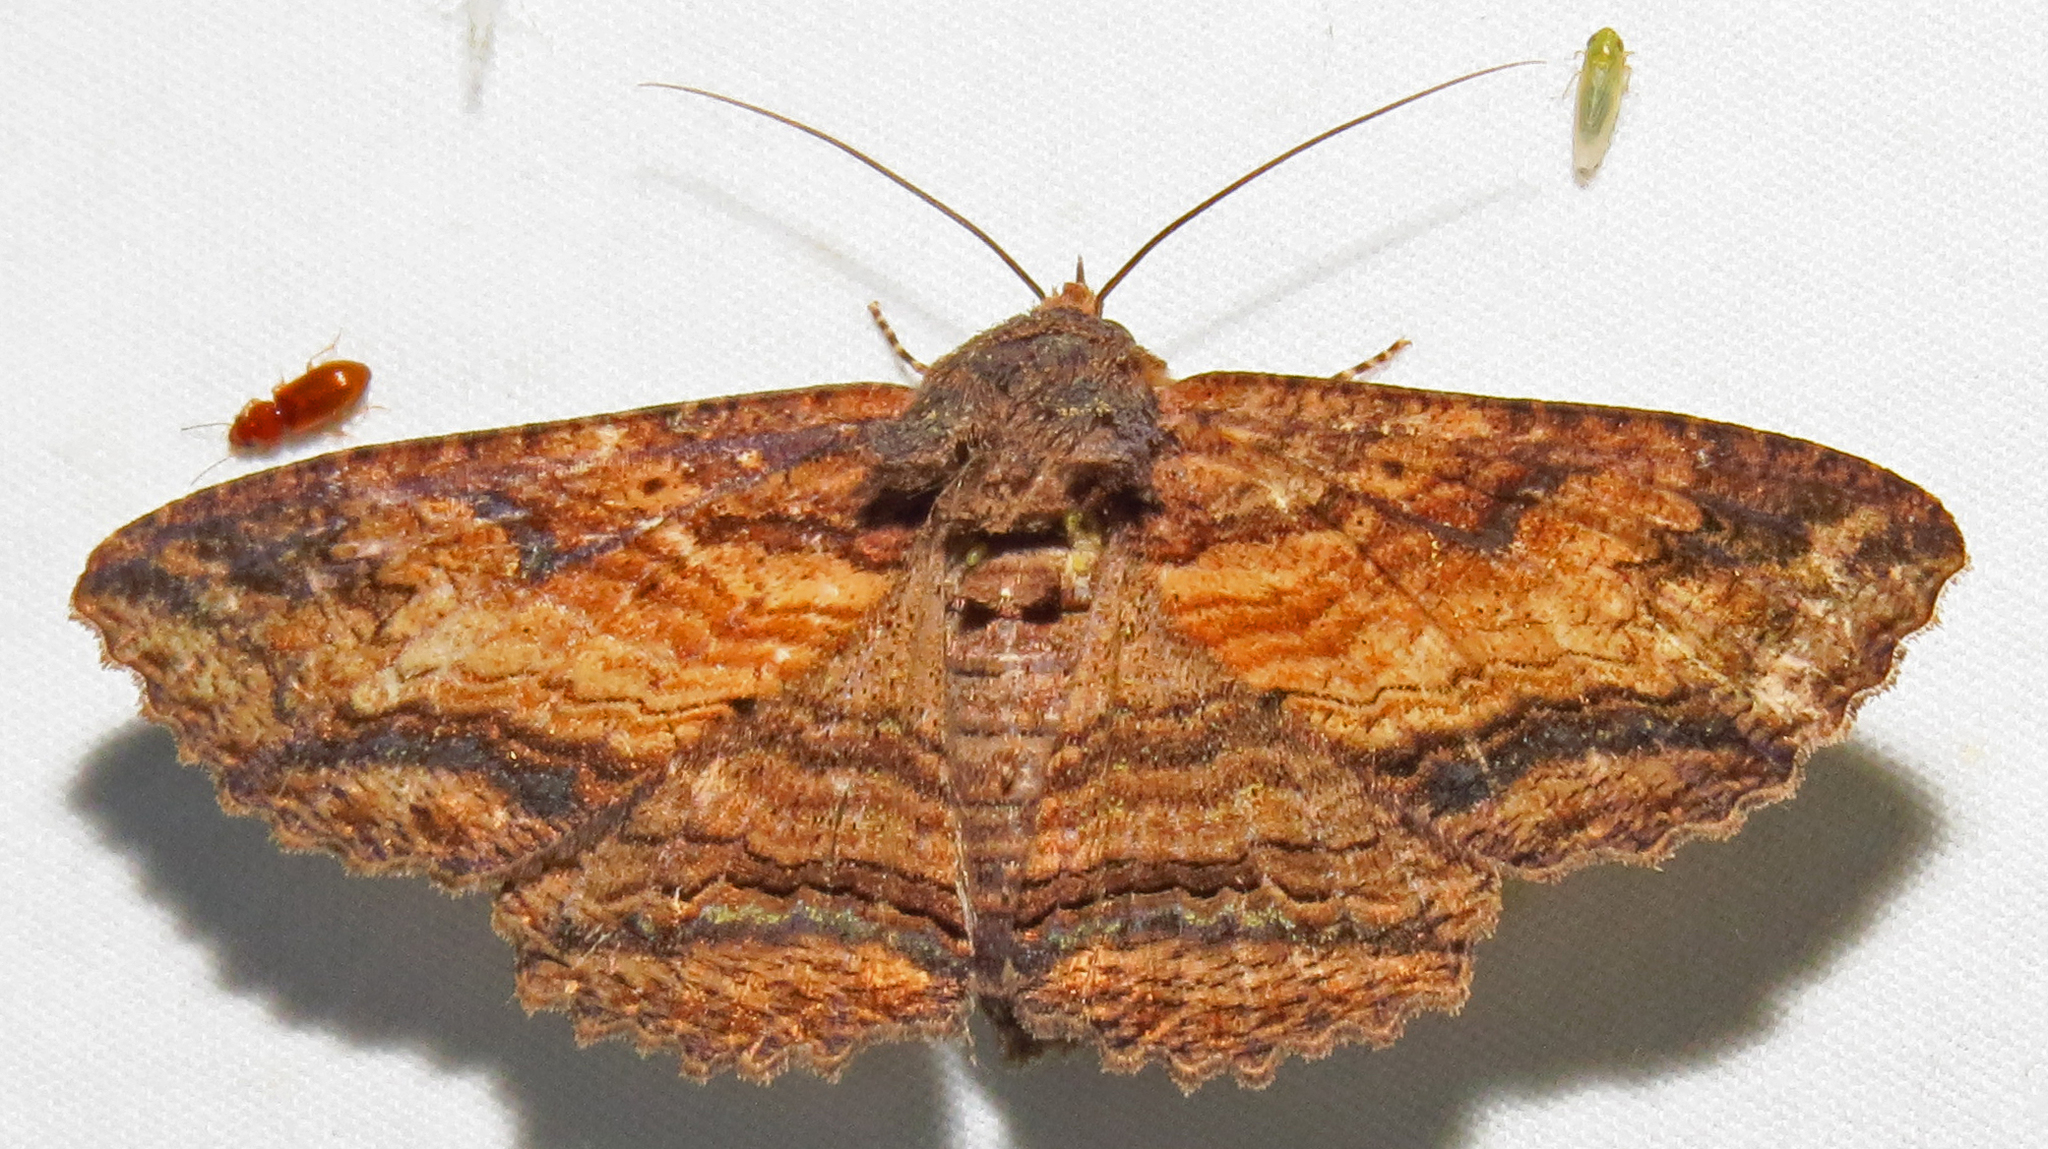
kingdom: Animalia
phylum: Arthropoda
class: Insecta
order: Lepidoptera
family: Erebidae
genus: Zale
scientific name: Zale lunata
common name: Lunate zale moth
